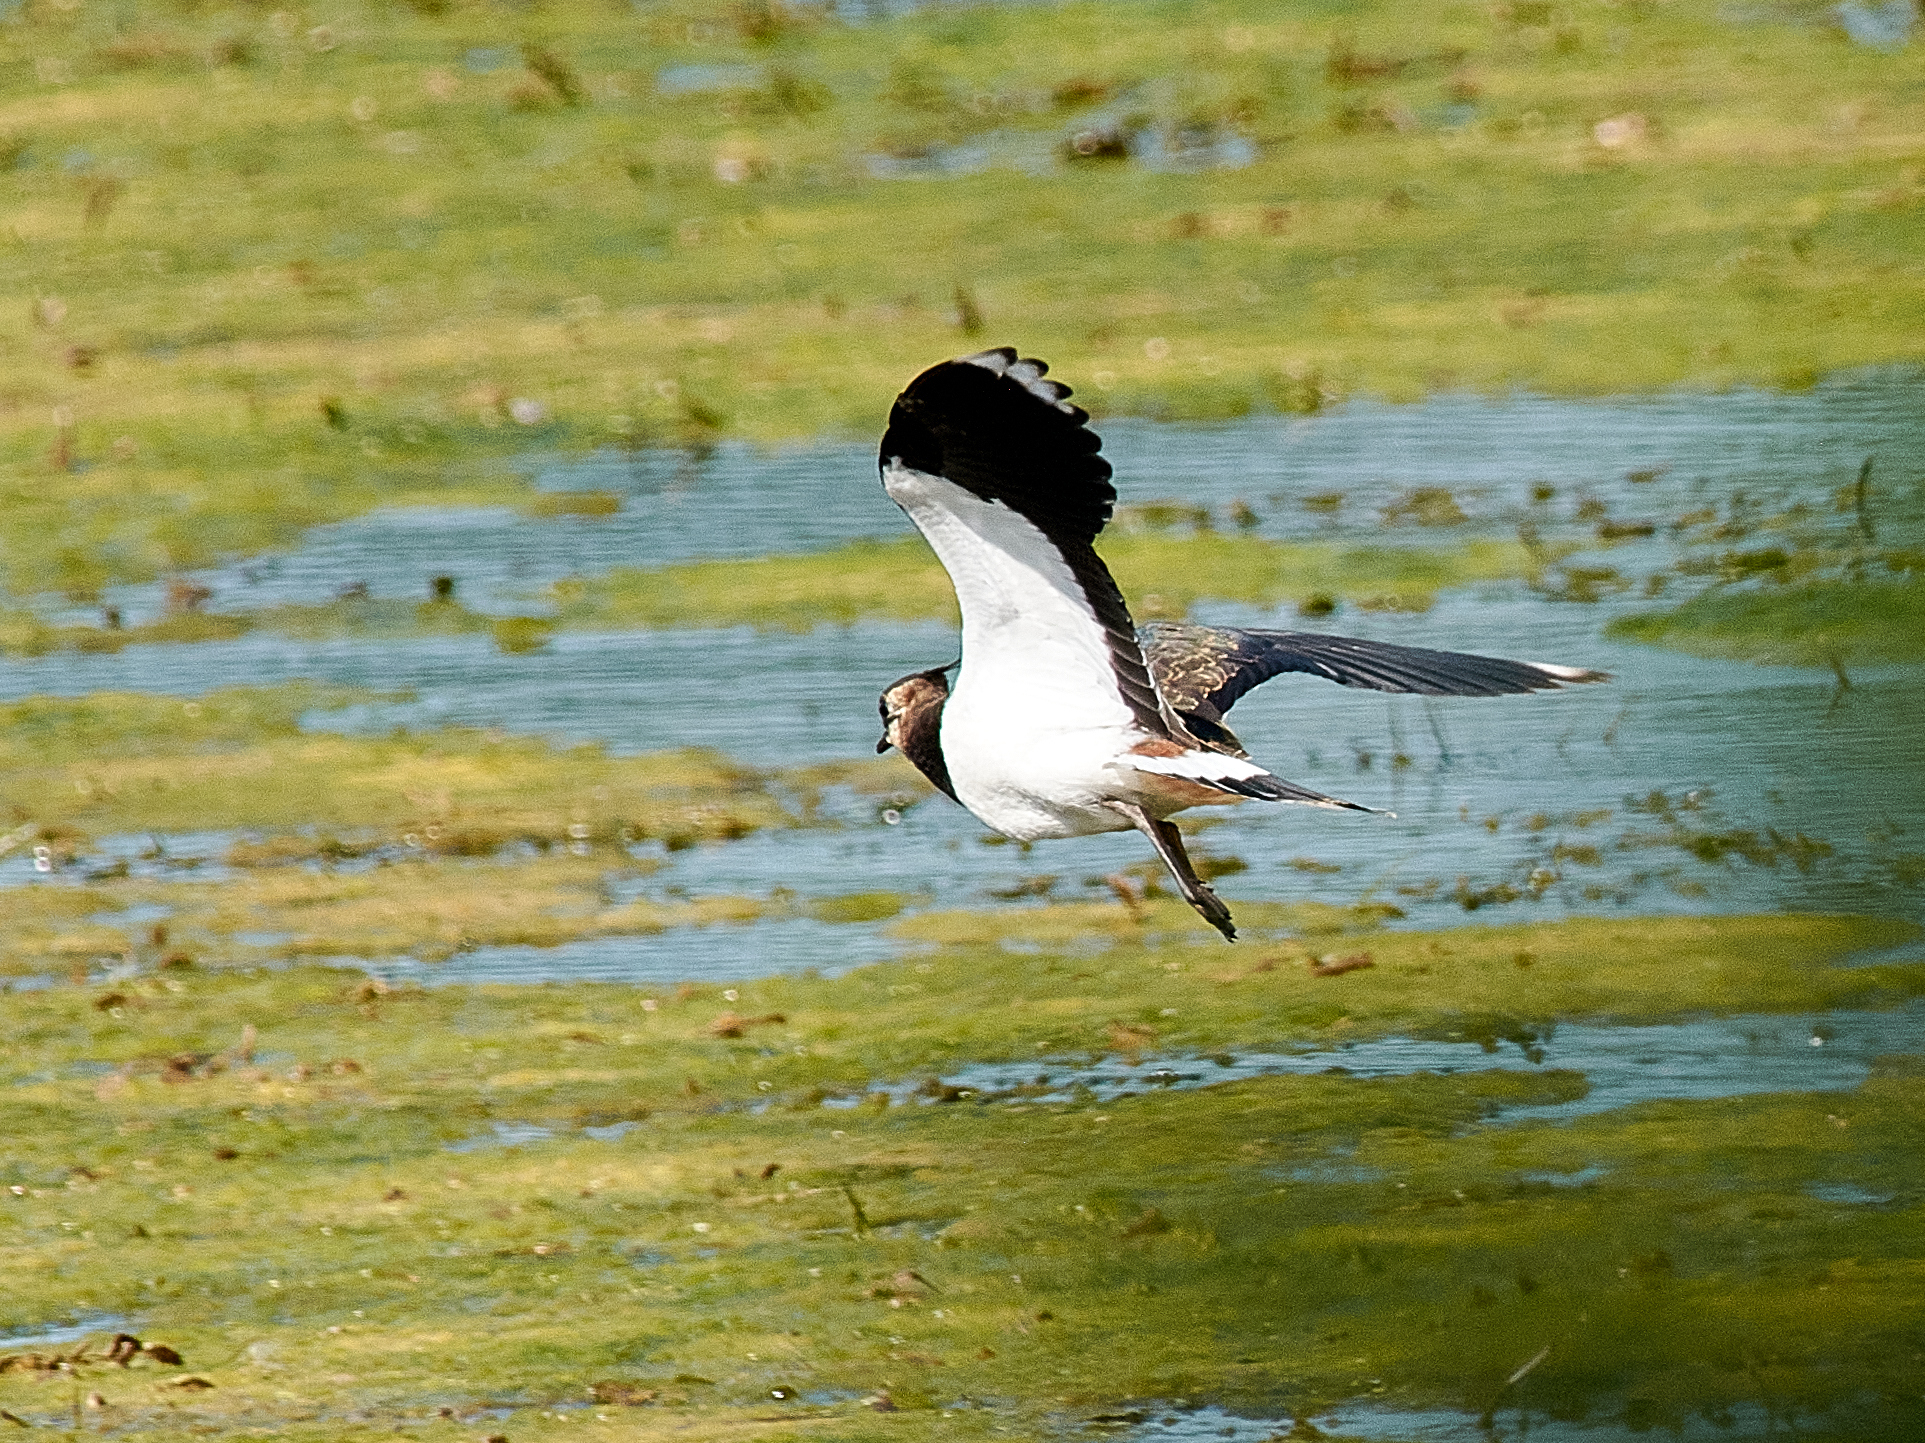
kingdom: Animalia
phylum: Chordata
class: Aves
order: Charadriiformes
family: Charadriidae
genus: Vanellus
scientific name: Vanellus vanellus
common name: Northern lapwing
